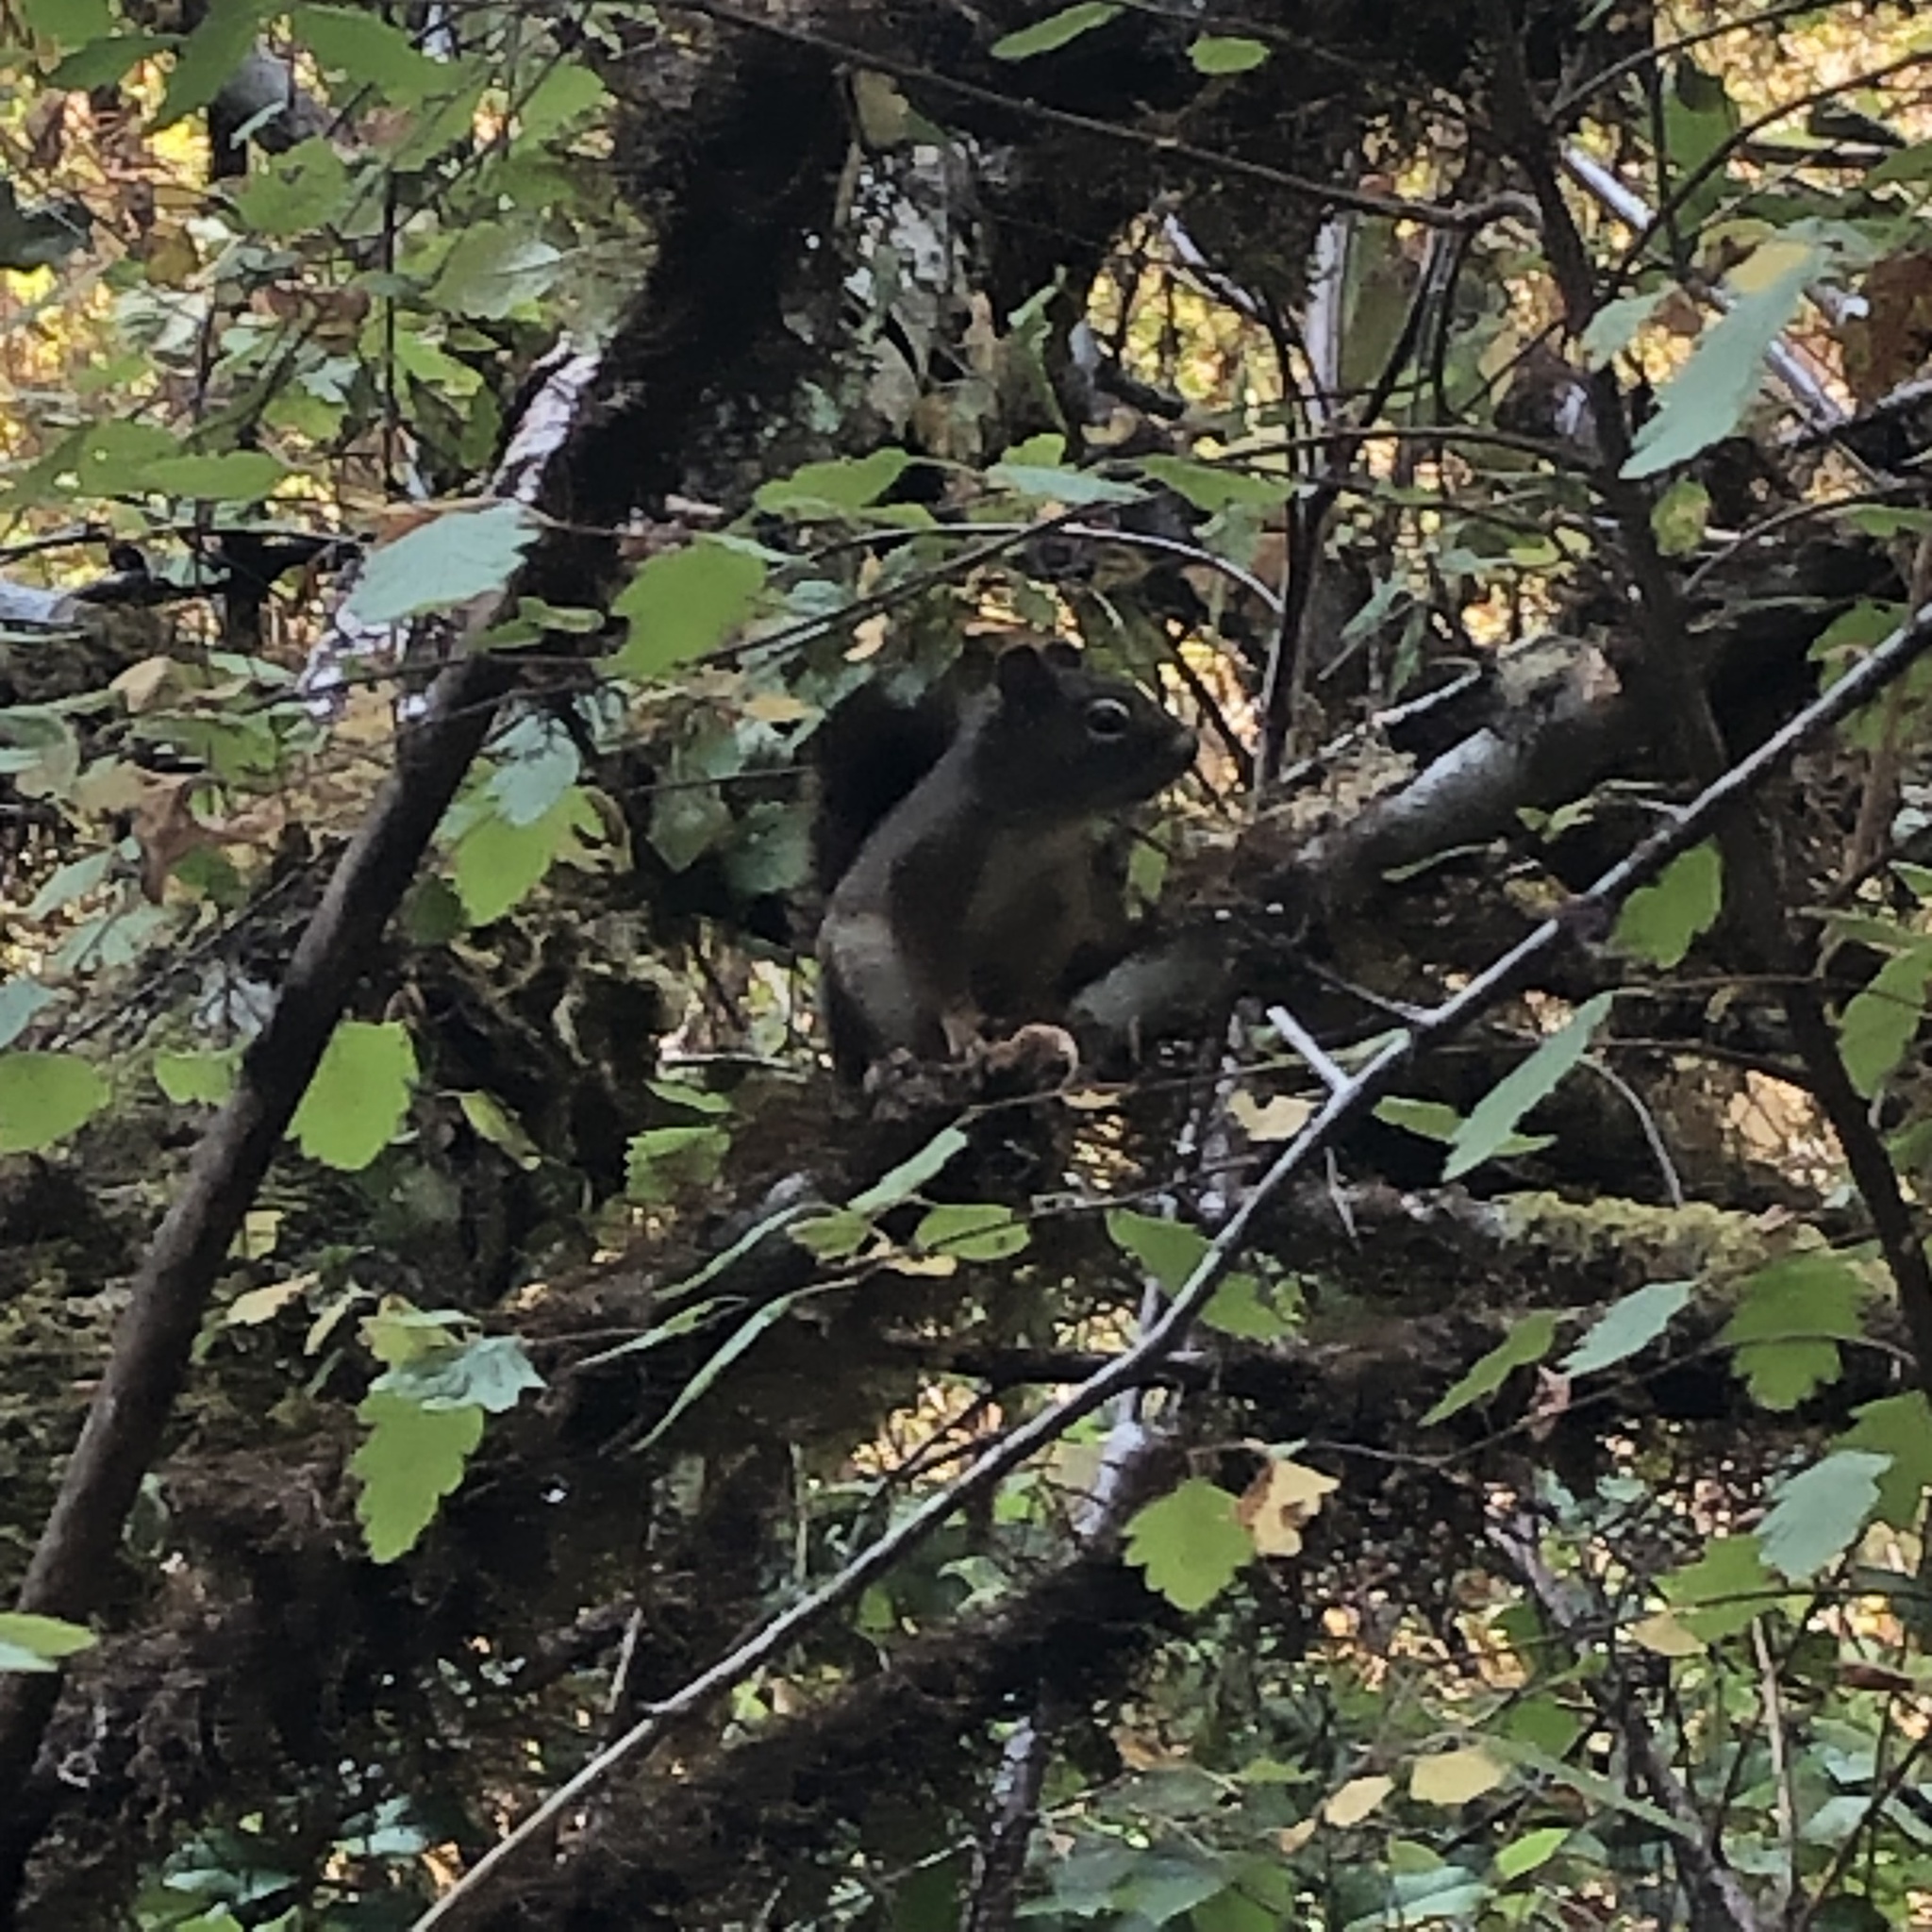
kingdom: Animalia
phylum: Chordata
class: Mammalia
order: Rodentia
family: Sciuridae
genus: Tamiasciurus
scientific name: Tamiasciurus hudsonicus
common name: Red squirrel
